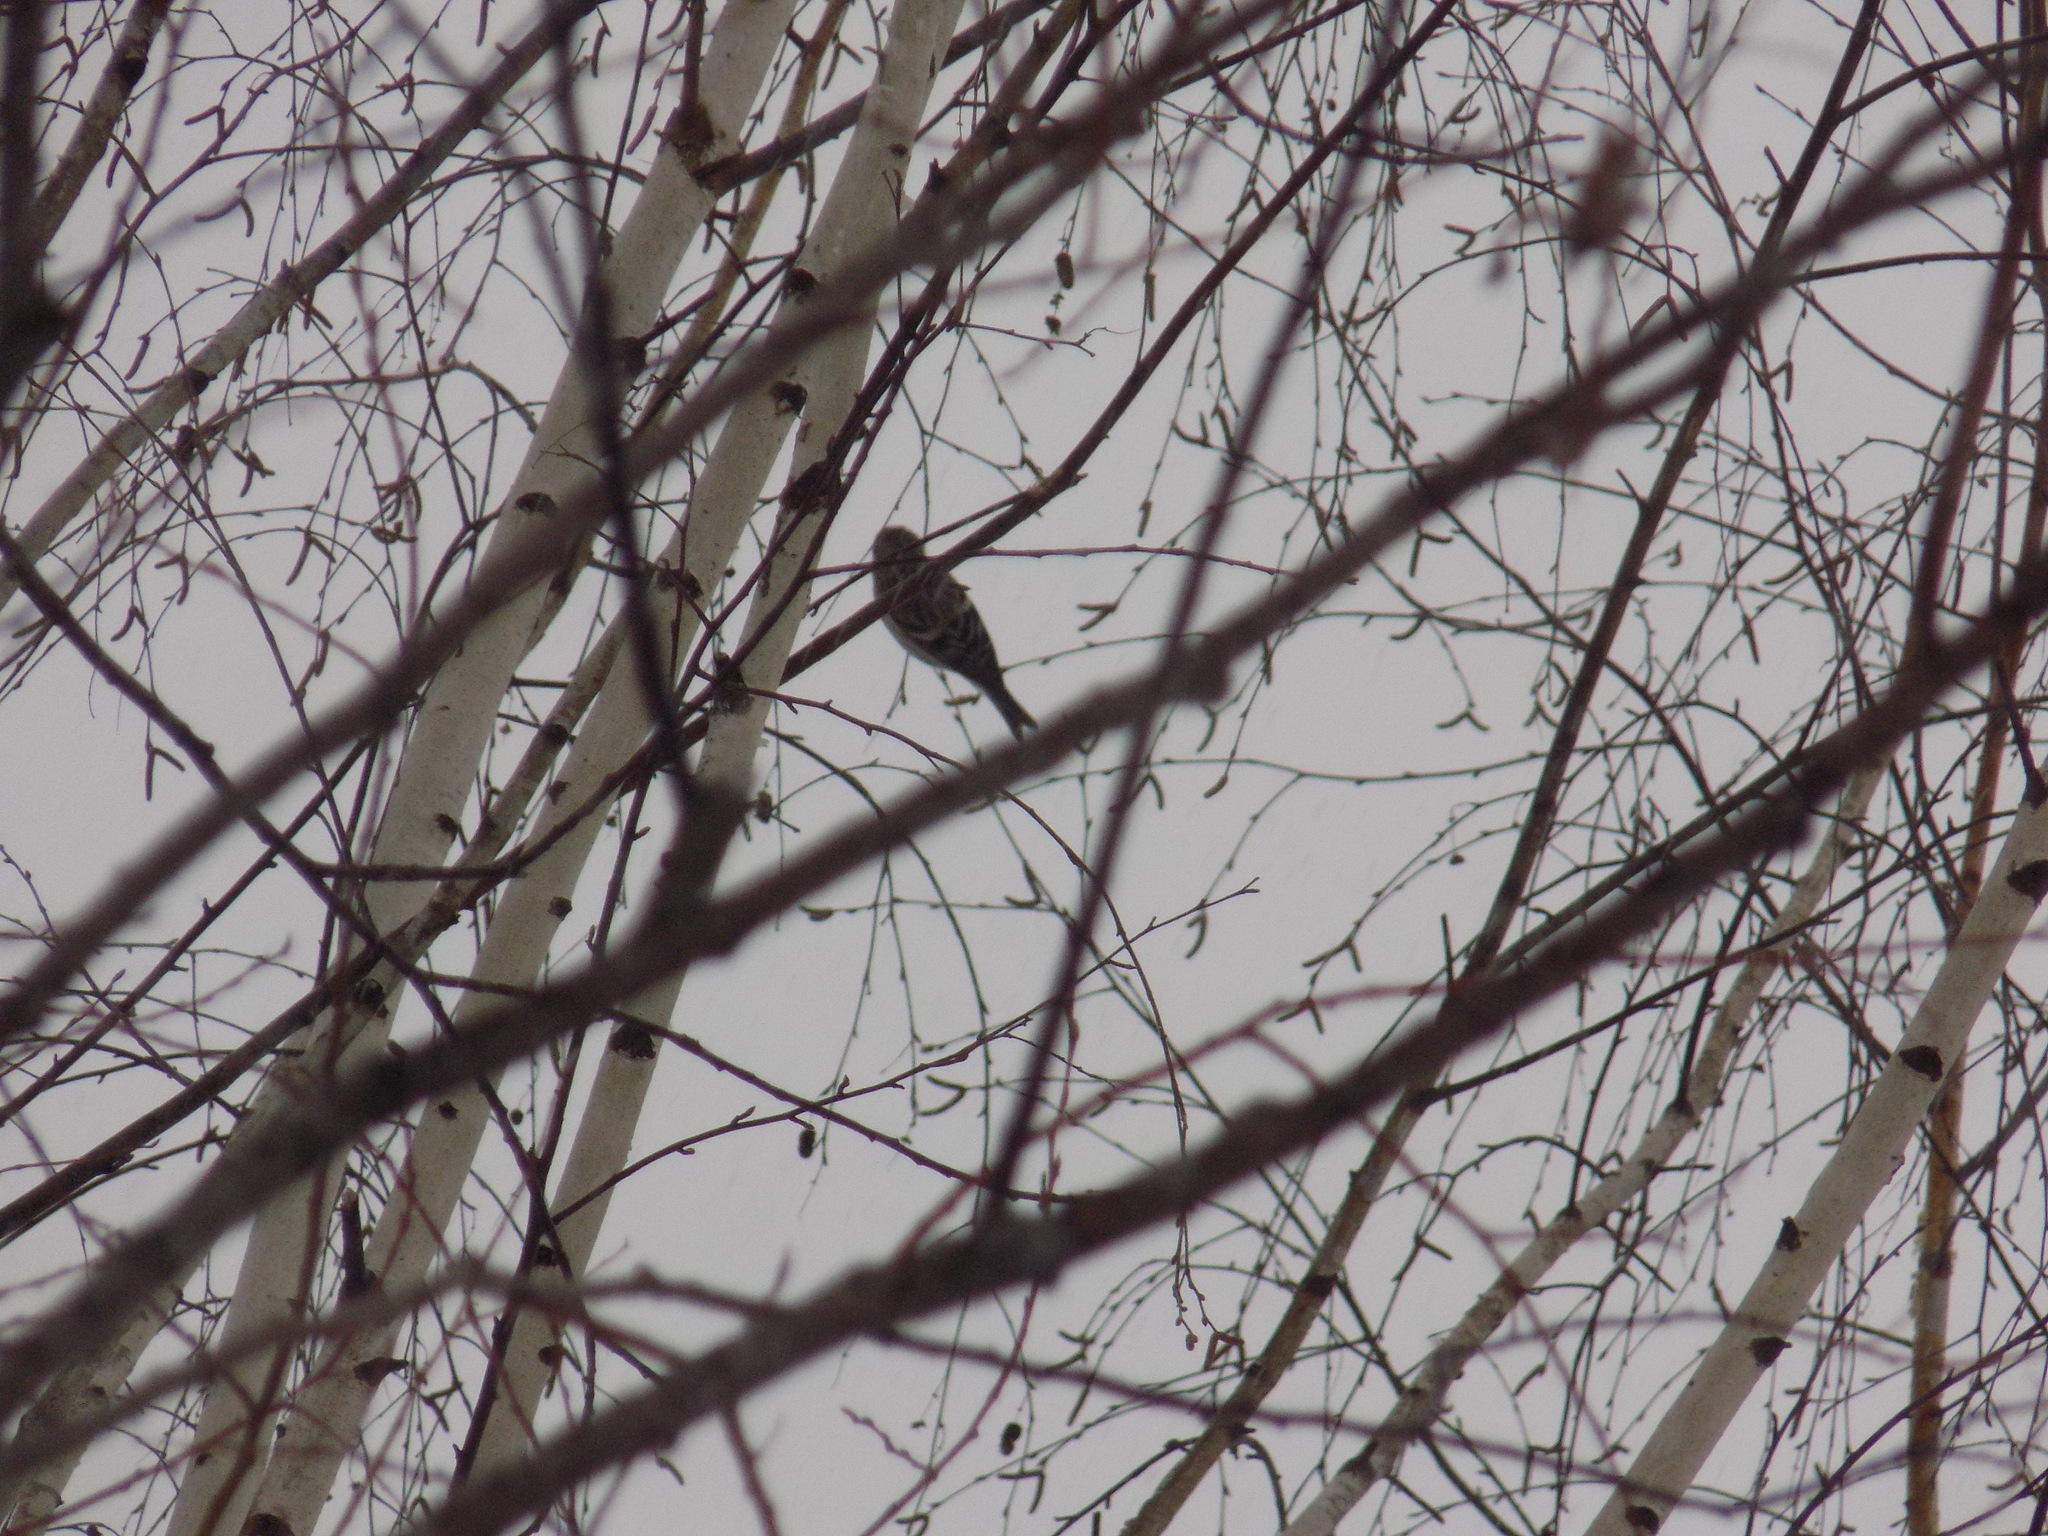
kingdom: Animalia
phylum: Chordata
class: Aves
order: Passeriformes
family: Fringillidae
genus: Acanthis
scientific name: Acanthis flammea
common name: Common redpoll
